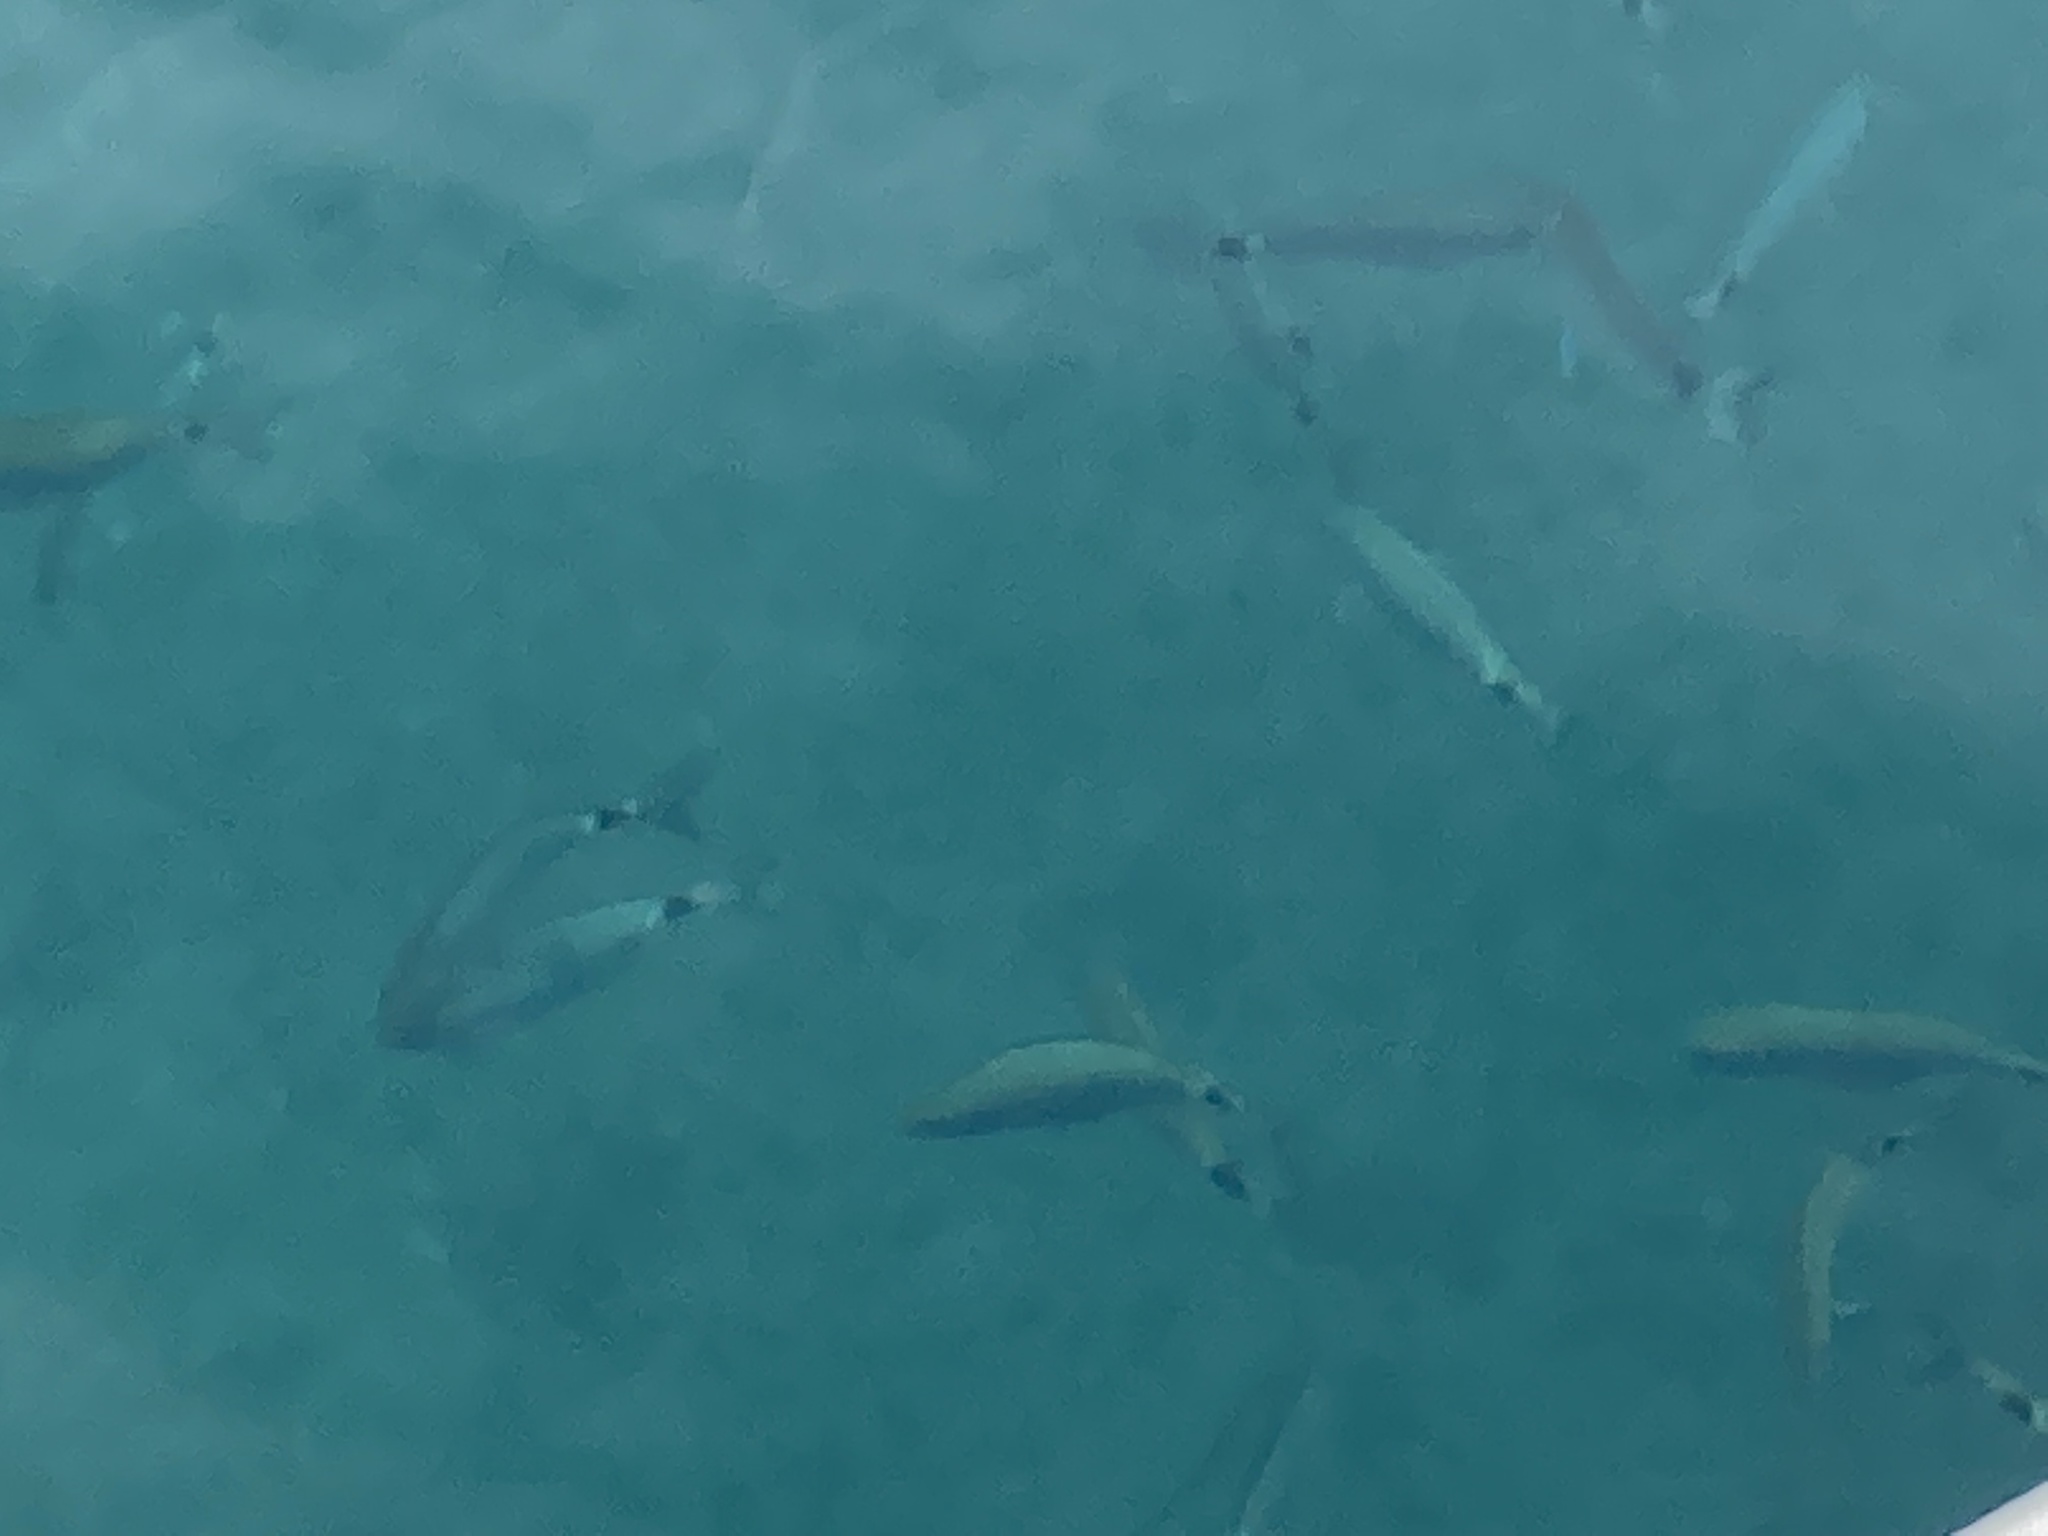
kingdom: Animalia
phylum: Chordata
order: Perciformes
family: Sparidae
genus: Oblada
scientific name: Oblada melanura
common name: Saddled seabream
